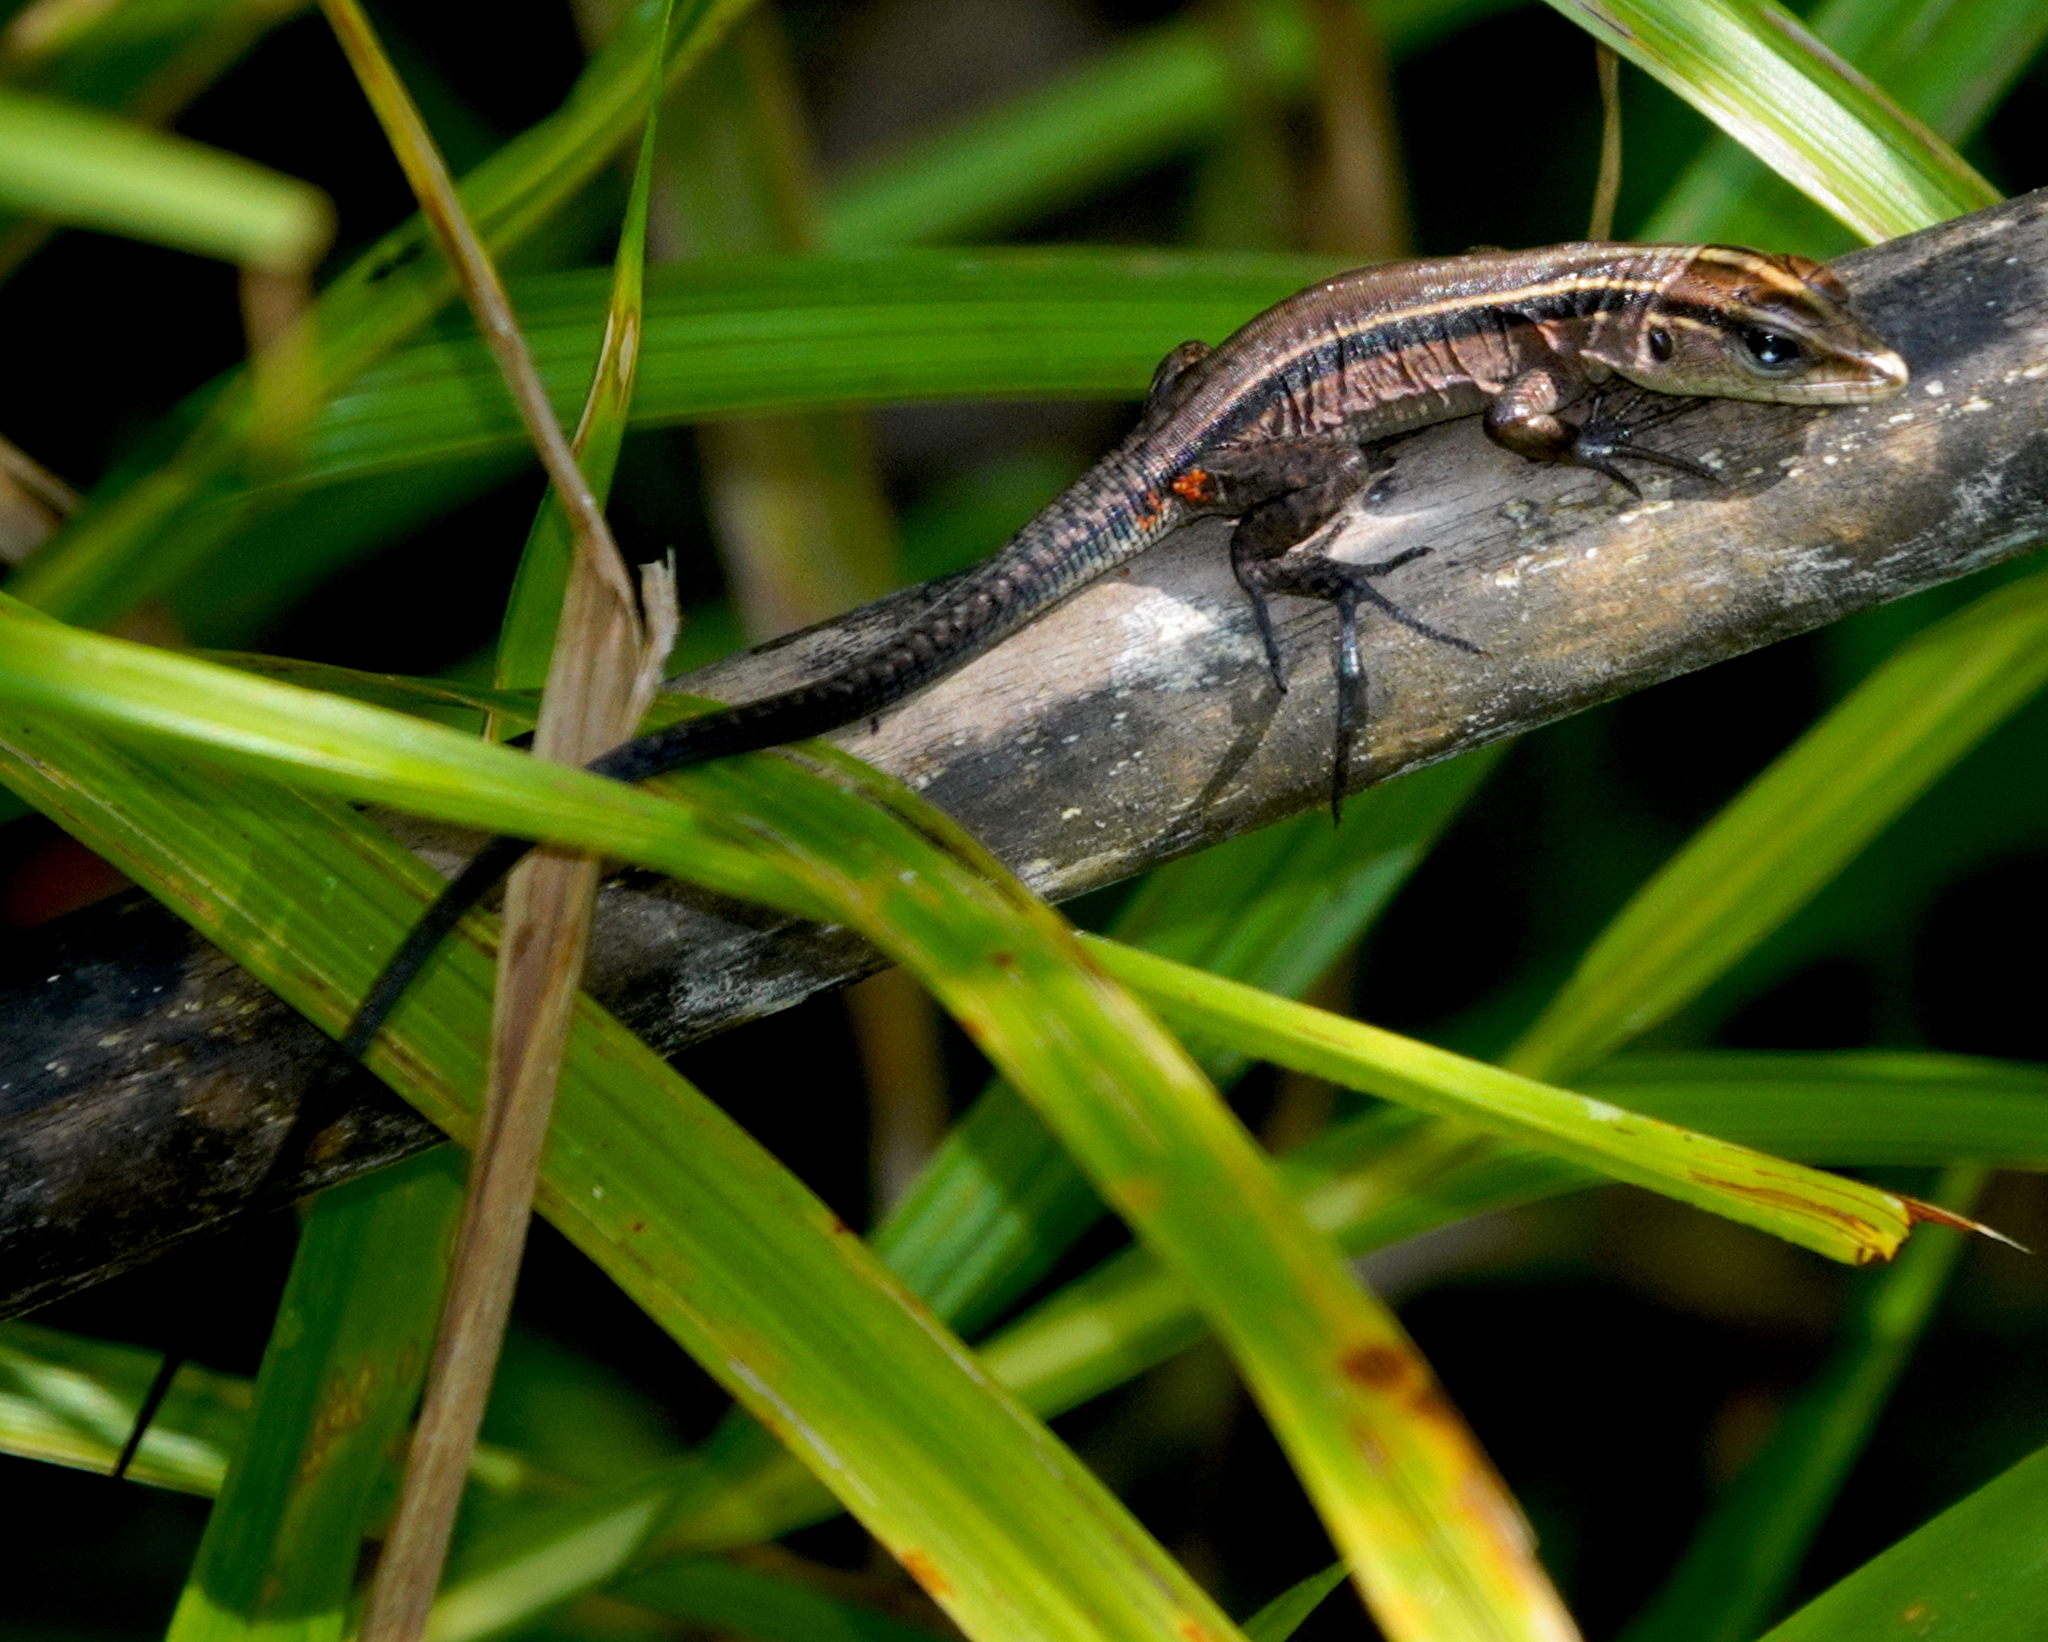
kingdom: Animalia
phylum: Chordata
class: Squamata
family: Teiidae
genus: Kentropyx
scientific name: Kentropyx altamazonica
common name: Cocha whiptail
